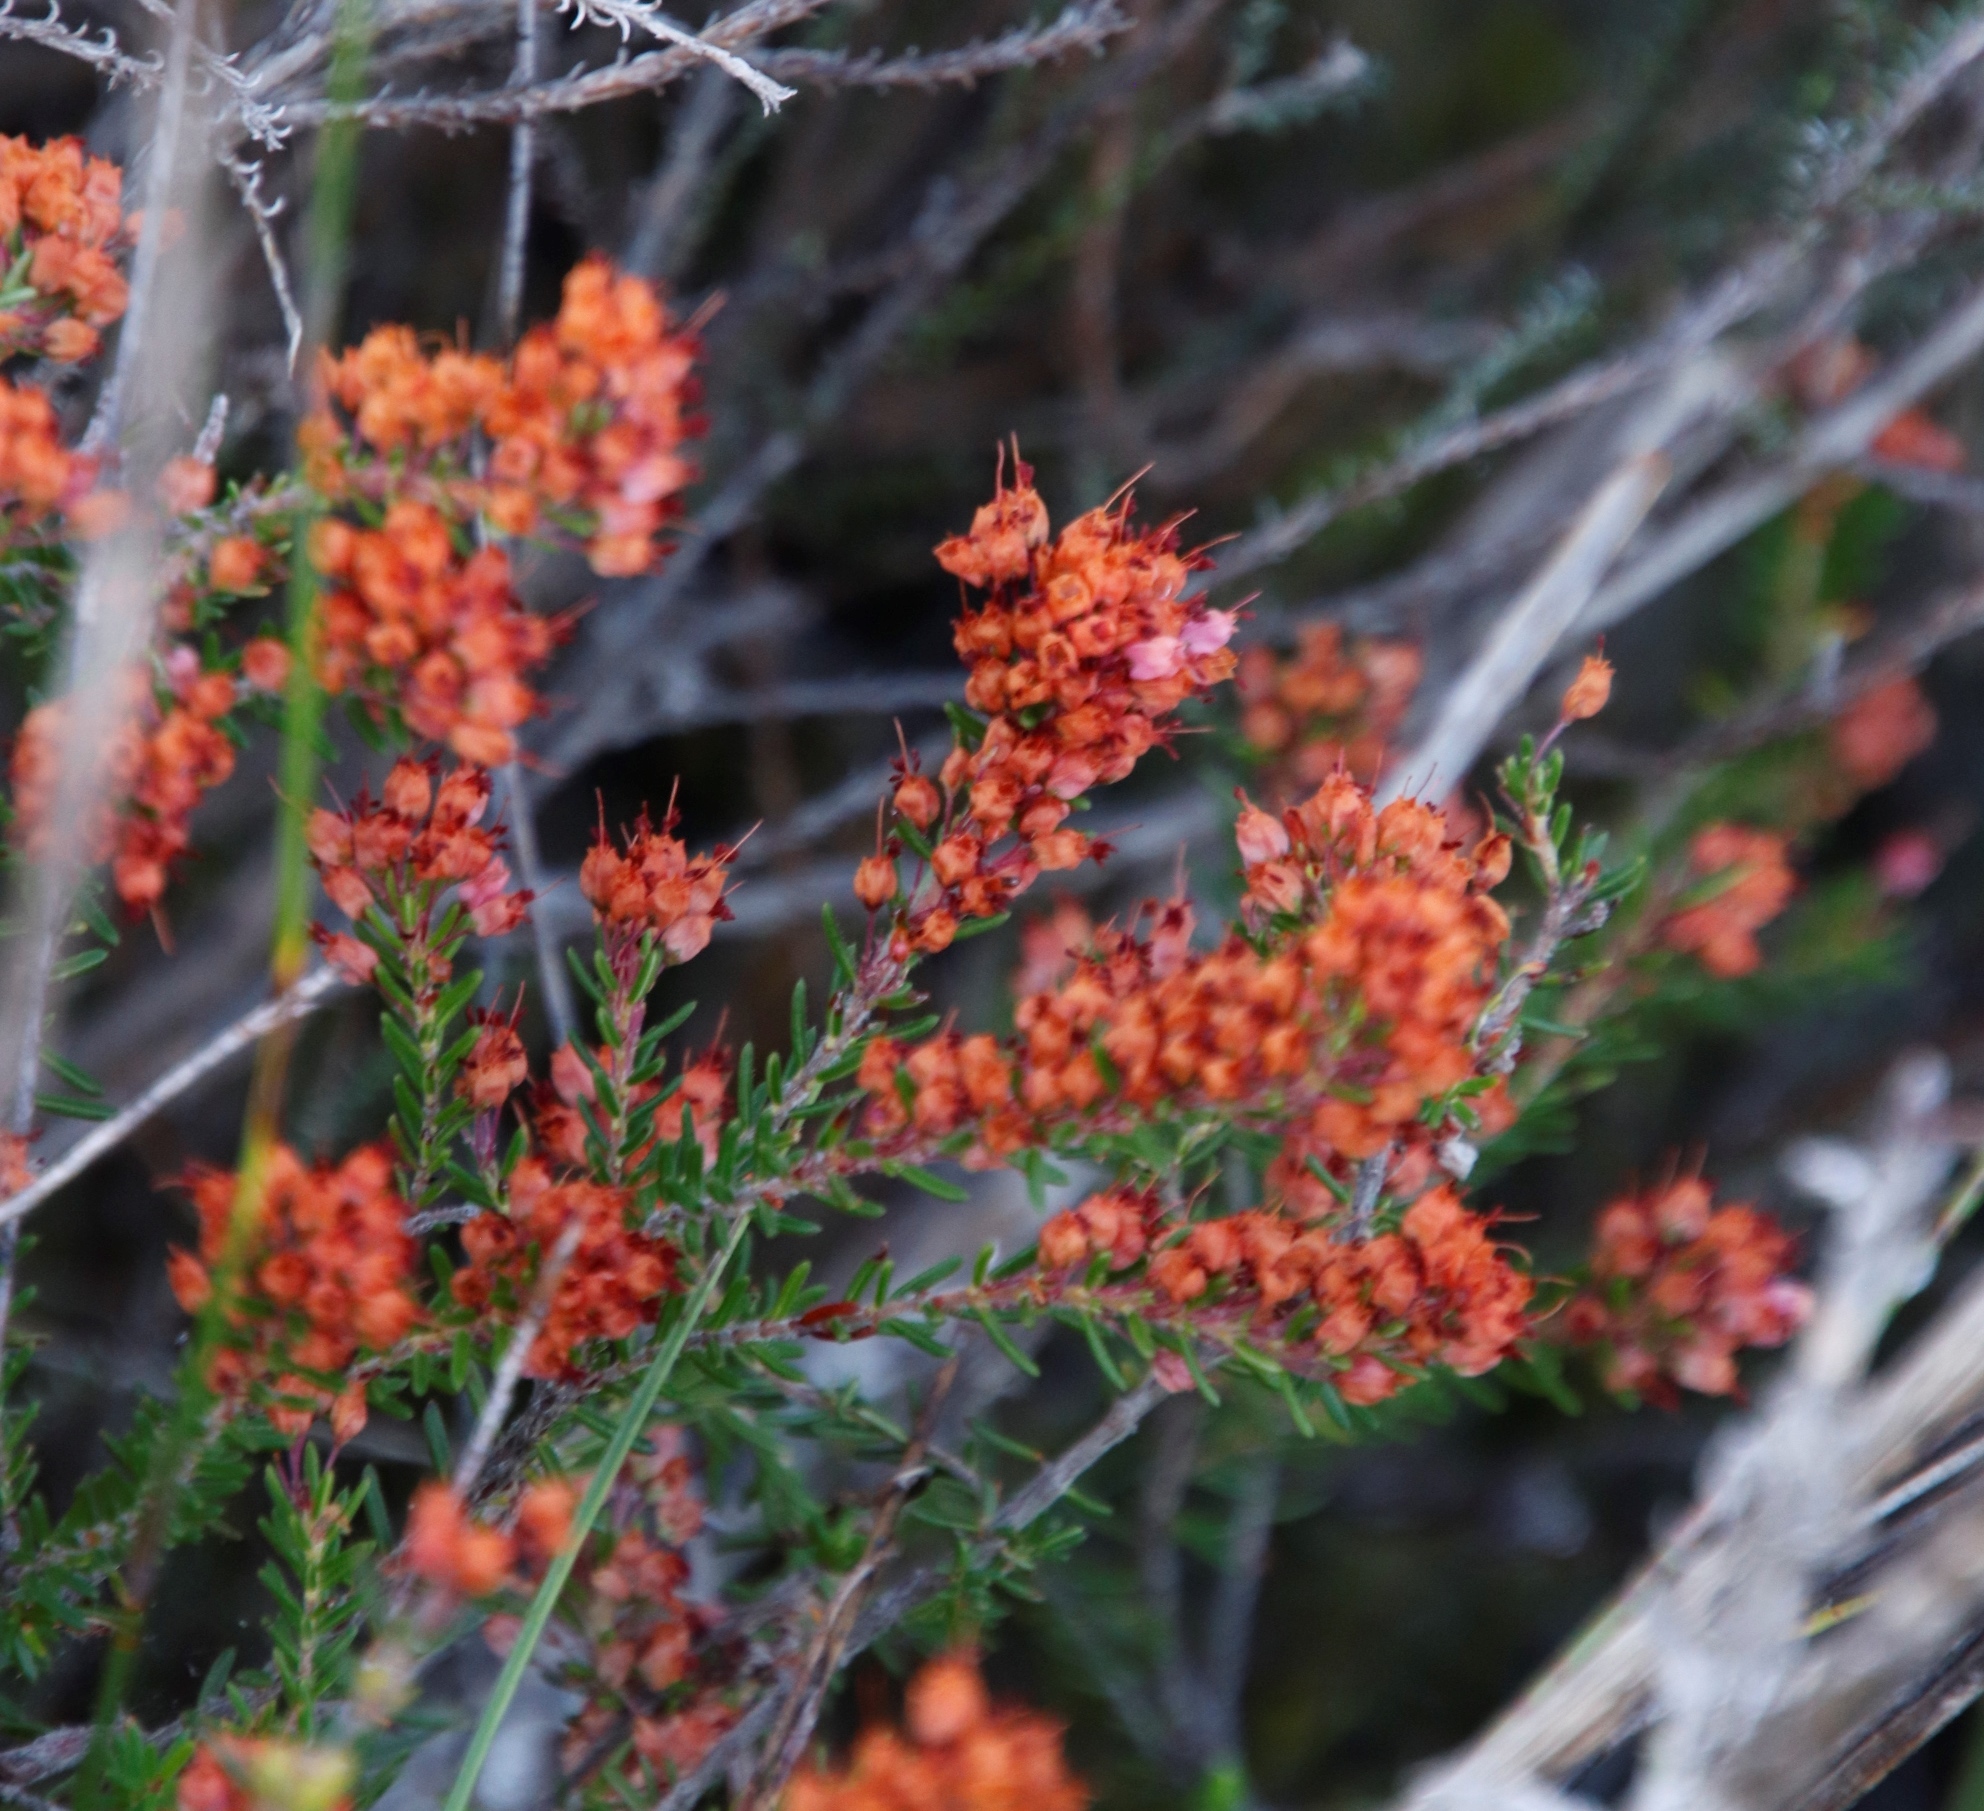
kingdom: Plantae
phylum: Tracheophyta
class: Magnoliopsida
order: Ericales
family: Ericaceae
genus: Erica
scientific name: Erica nudiflora
